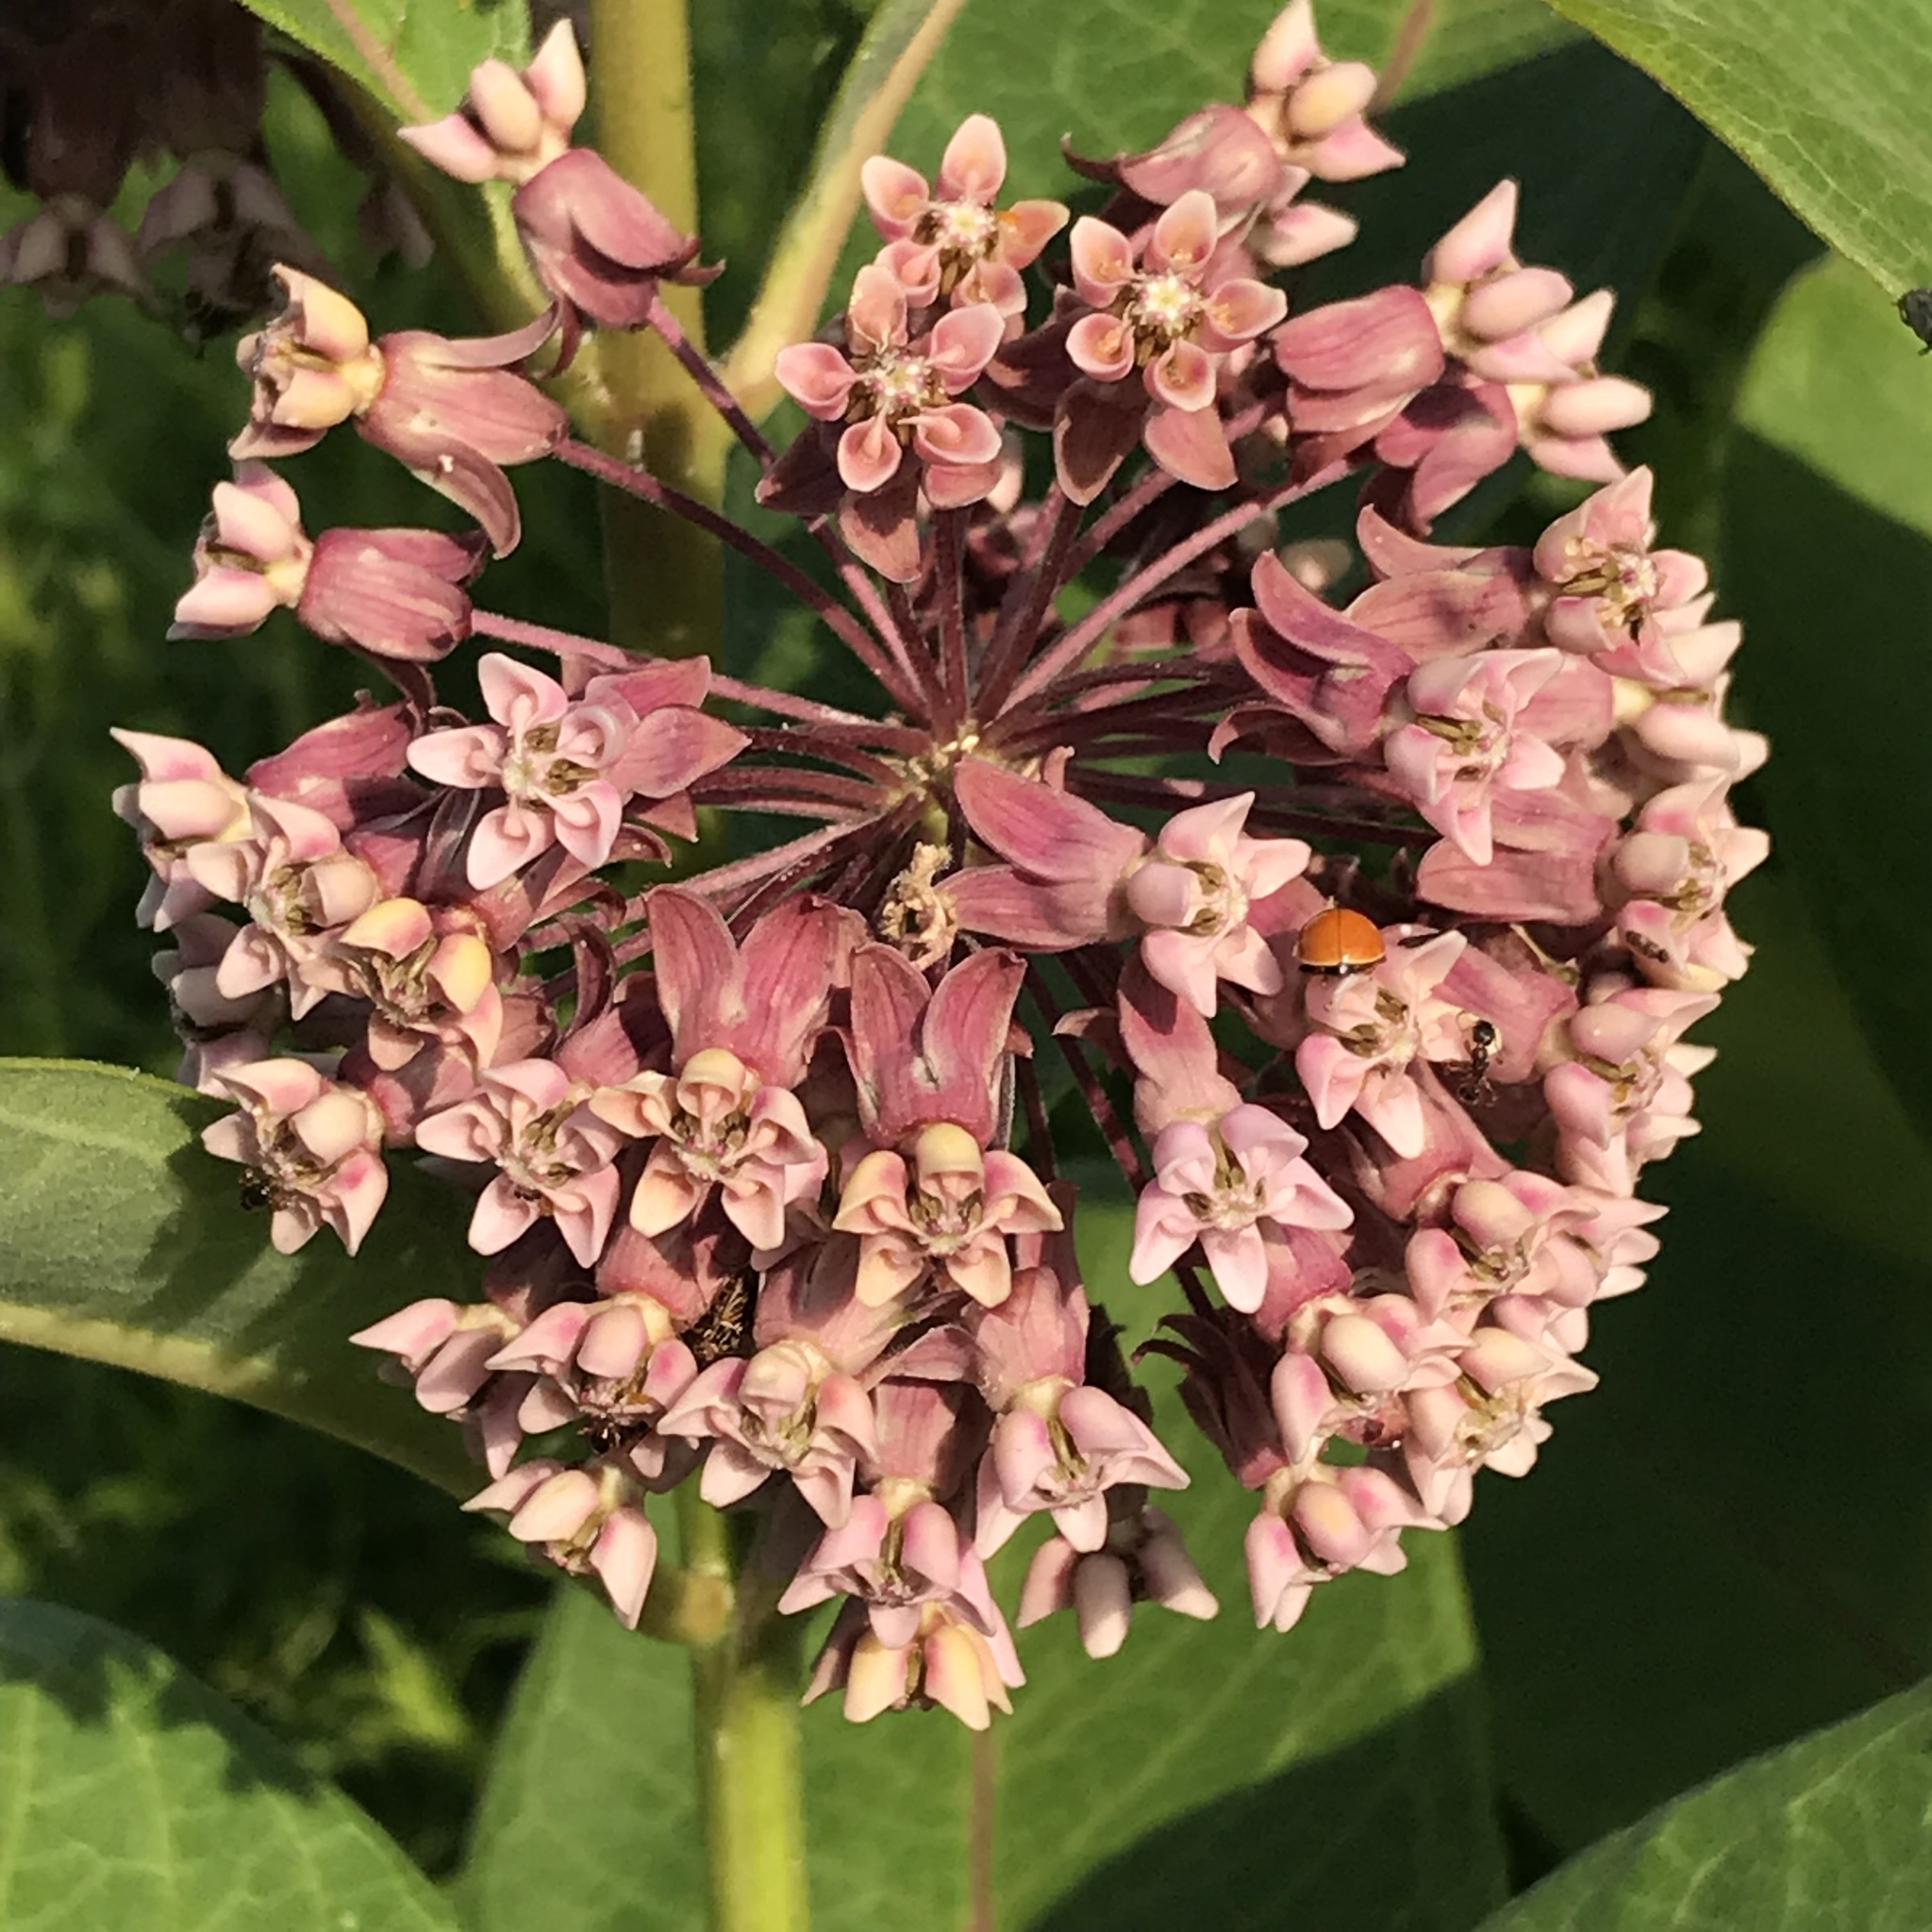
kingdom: Plantae
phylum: Tracheophyta
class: Magnoliopsida
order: Gentianales
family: Apocynaceae
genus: Asclepias
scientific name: Asclepias syriaca
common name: Common milkweed
